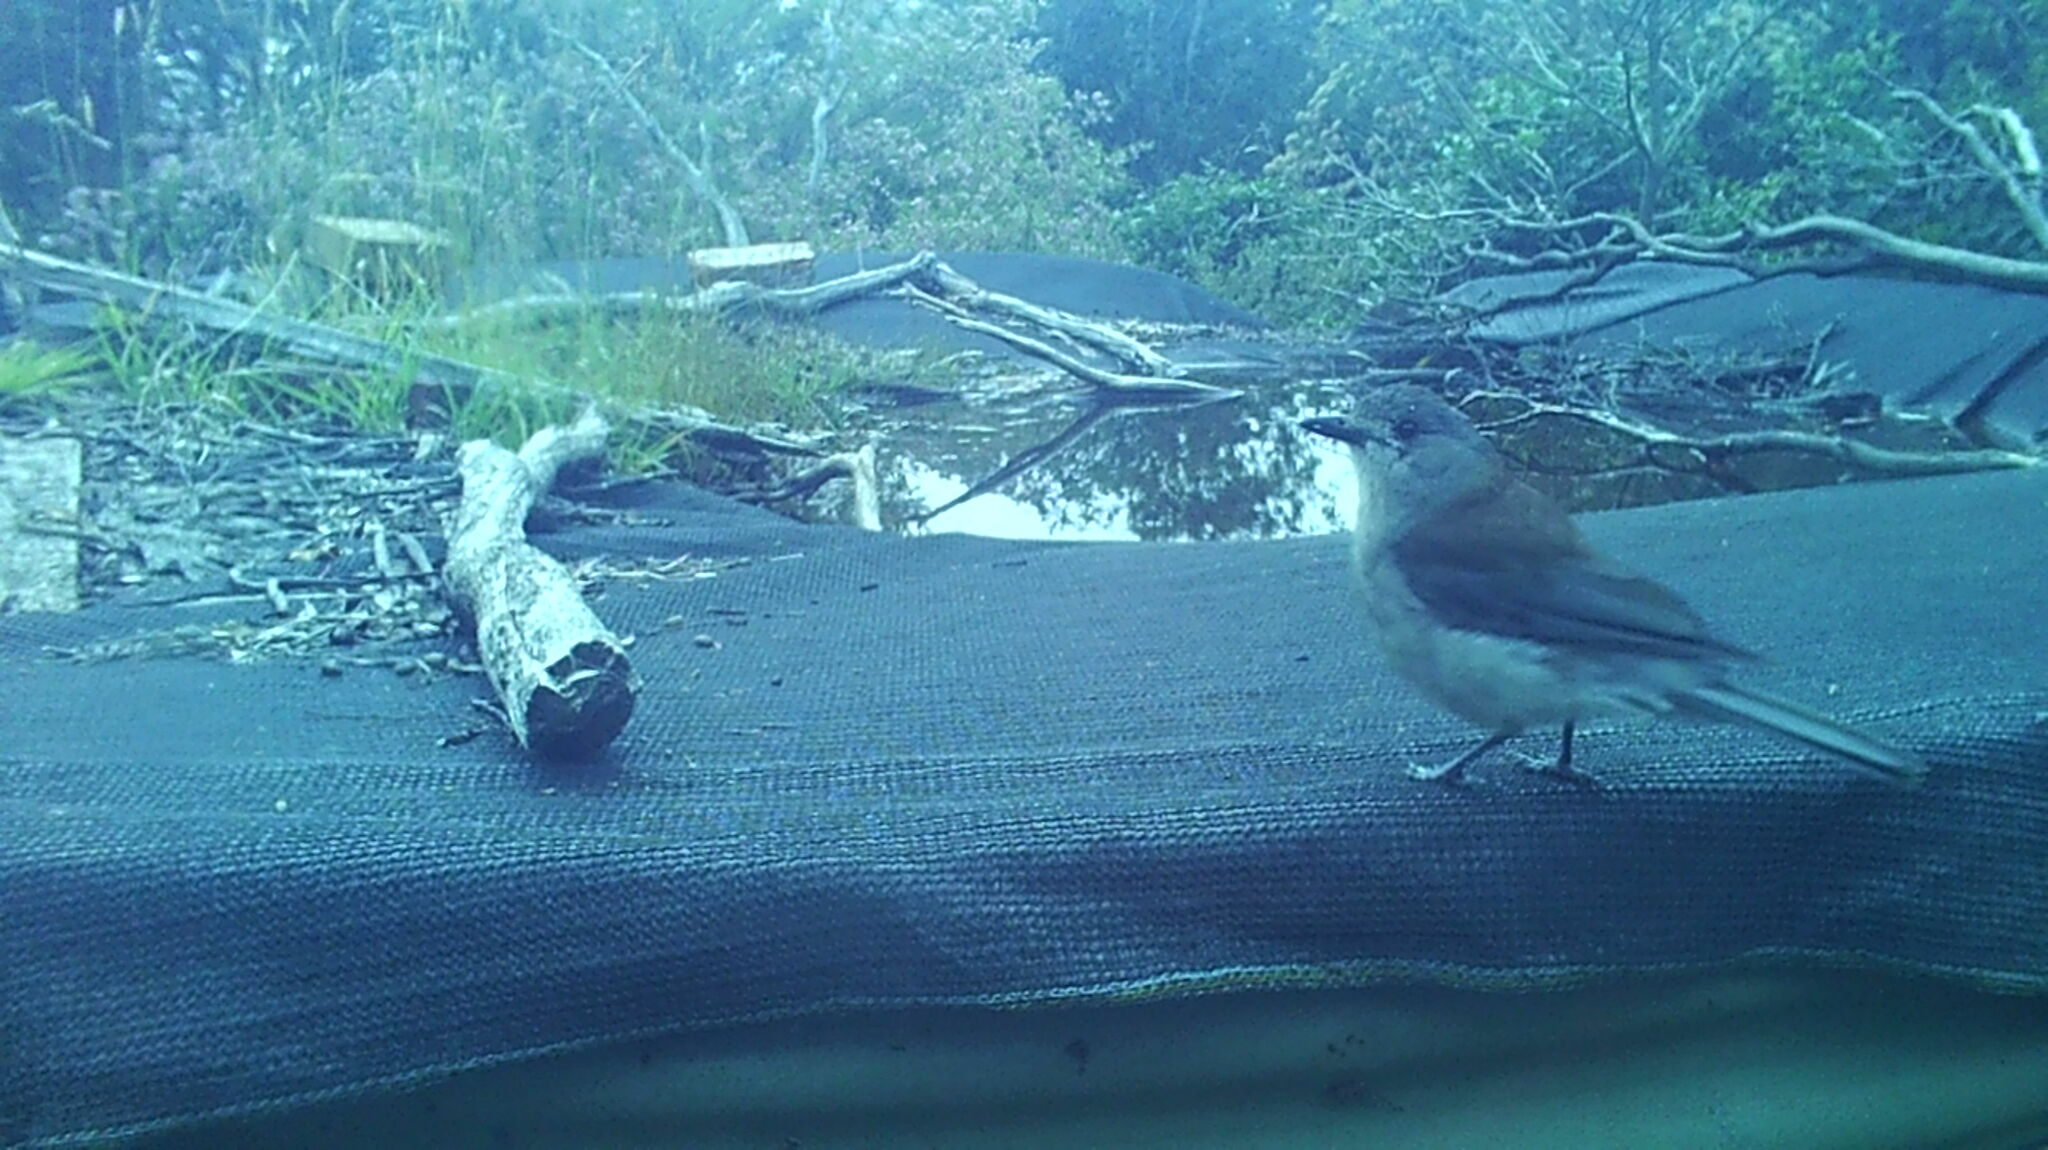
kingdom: Animalia
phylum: Chordata
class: Aves
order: Passeriformes
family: Pachycephalidae
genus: Colluricincla
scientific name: Colluricincla harmonica
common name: Grey shrikethrush
